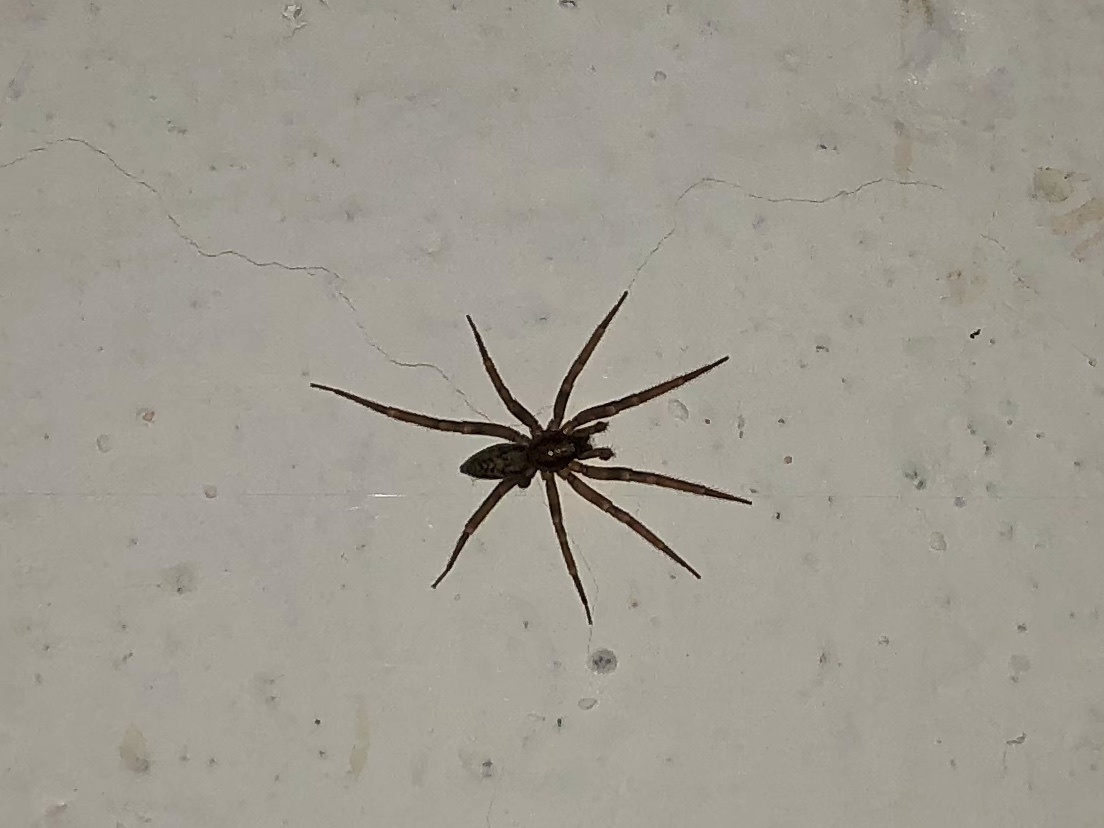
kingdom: Animalia
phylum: Arthropoda
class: Arachnida
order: Araneae
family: Liocranidae
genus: Liocranum
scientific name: Liocranum rupicola
